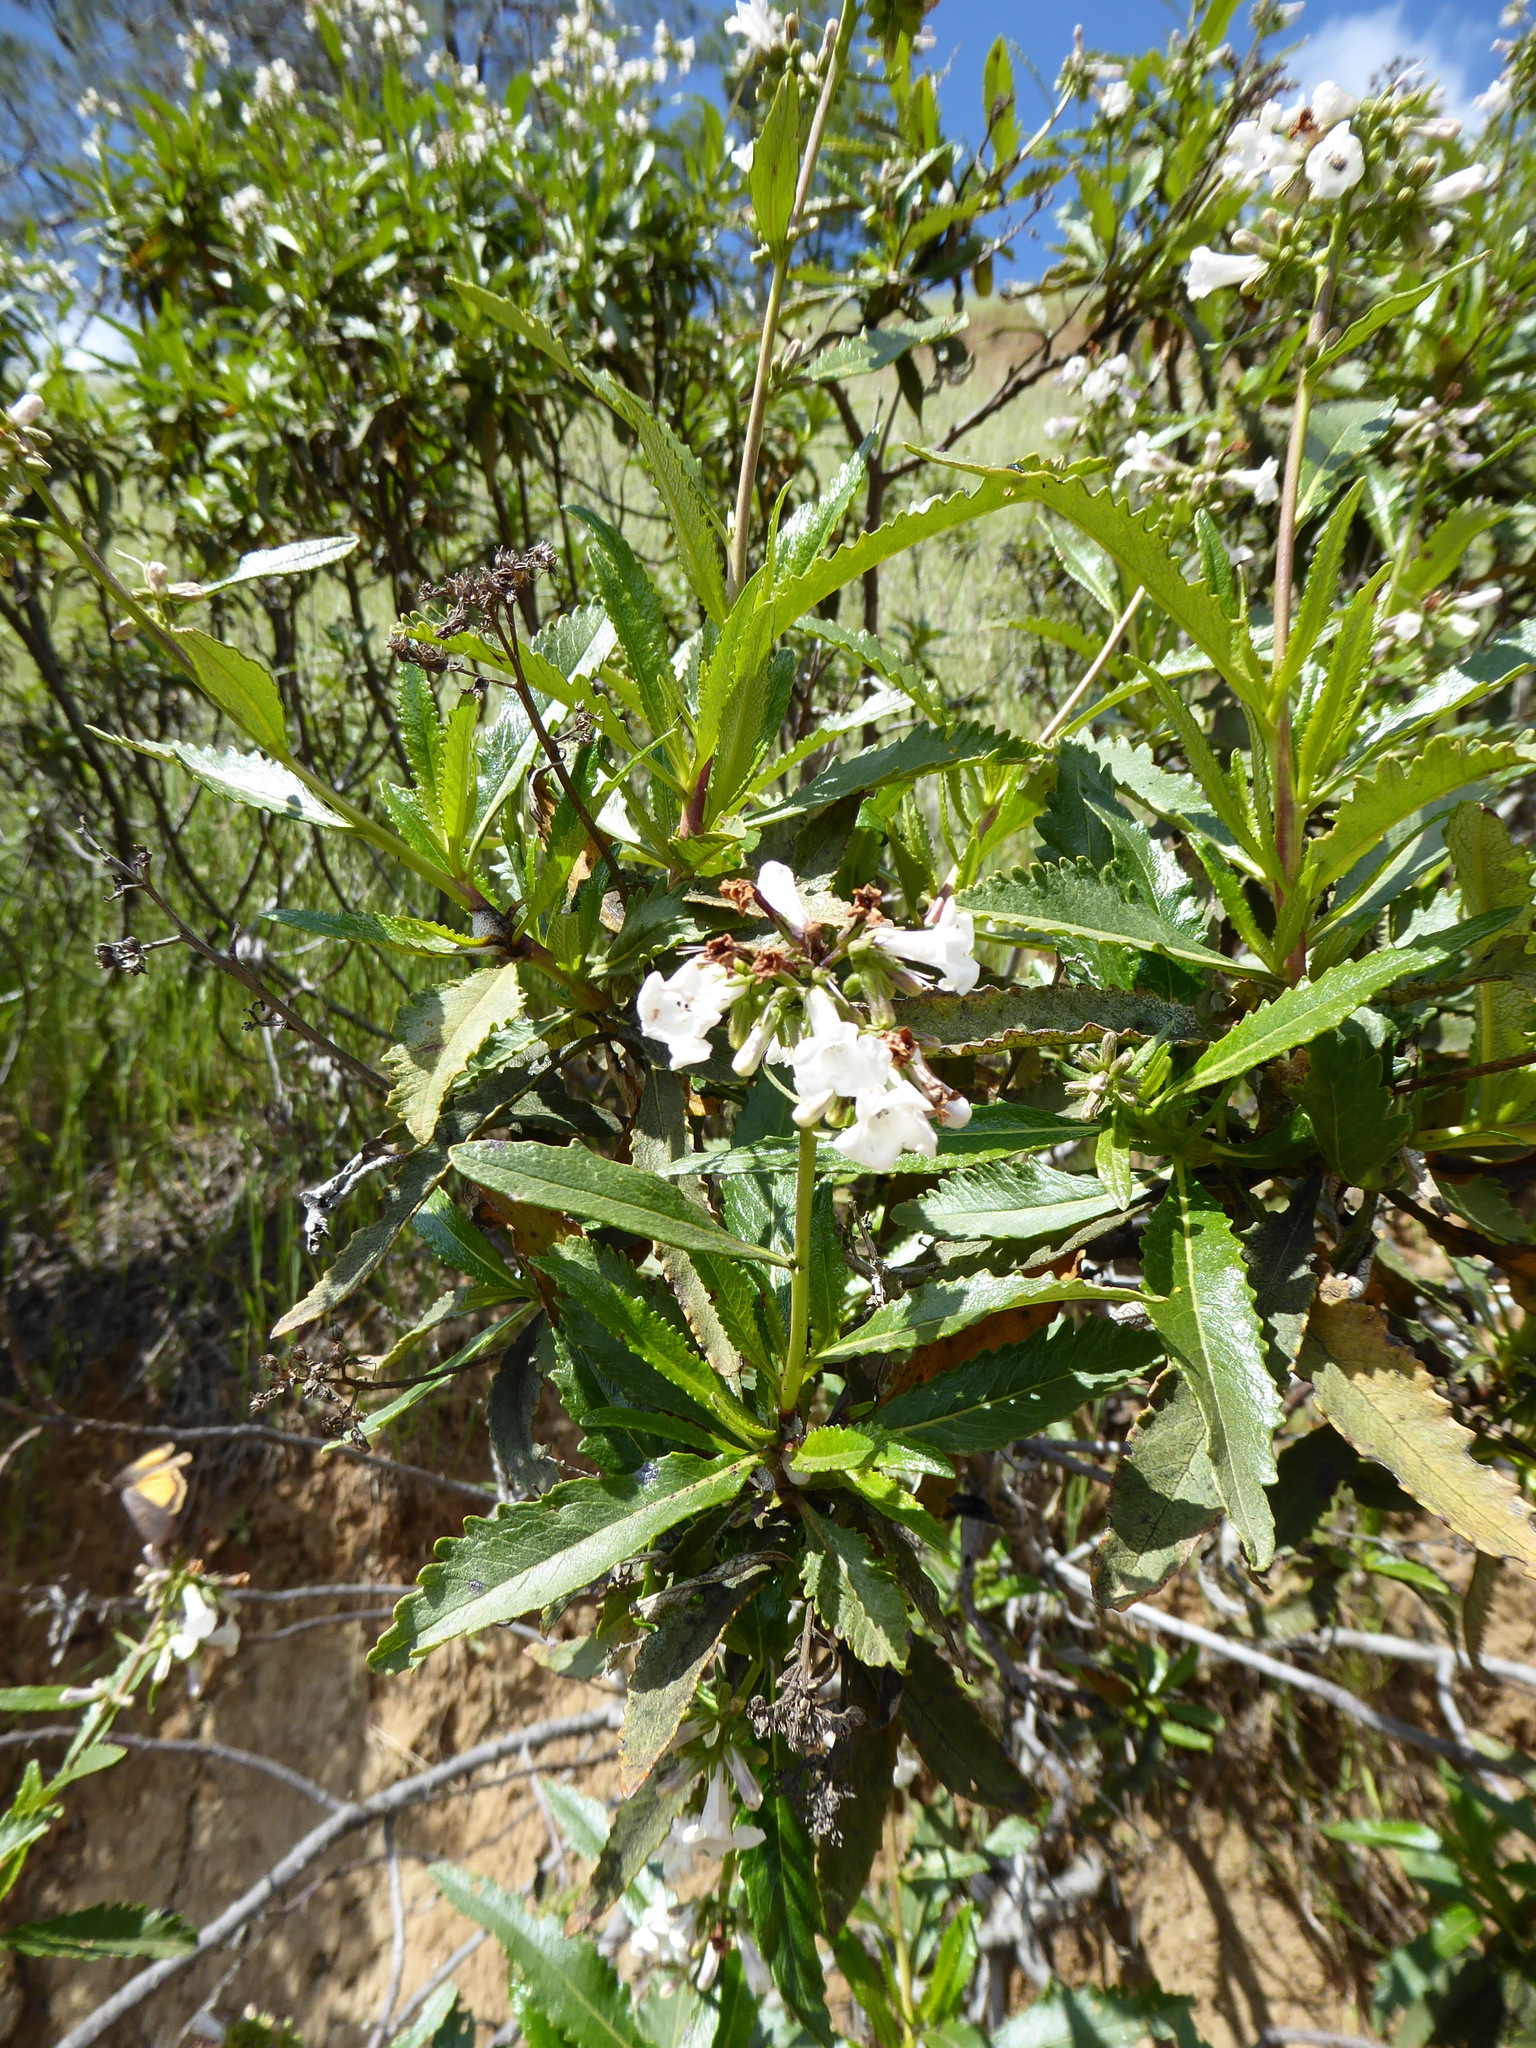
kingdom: Plantae
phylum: Tracheophyta
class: Magnoliopsida
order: Boraginales
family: Namaceae
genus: Eriodictyon
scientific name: Eriodictyon californicum
